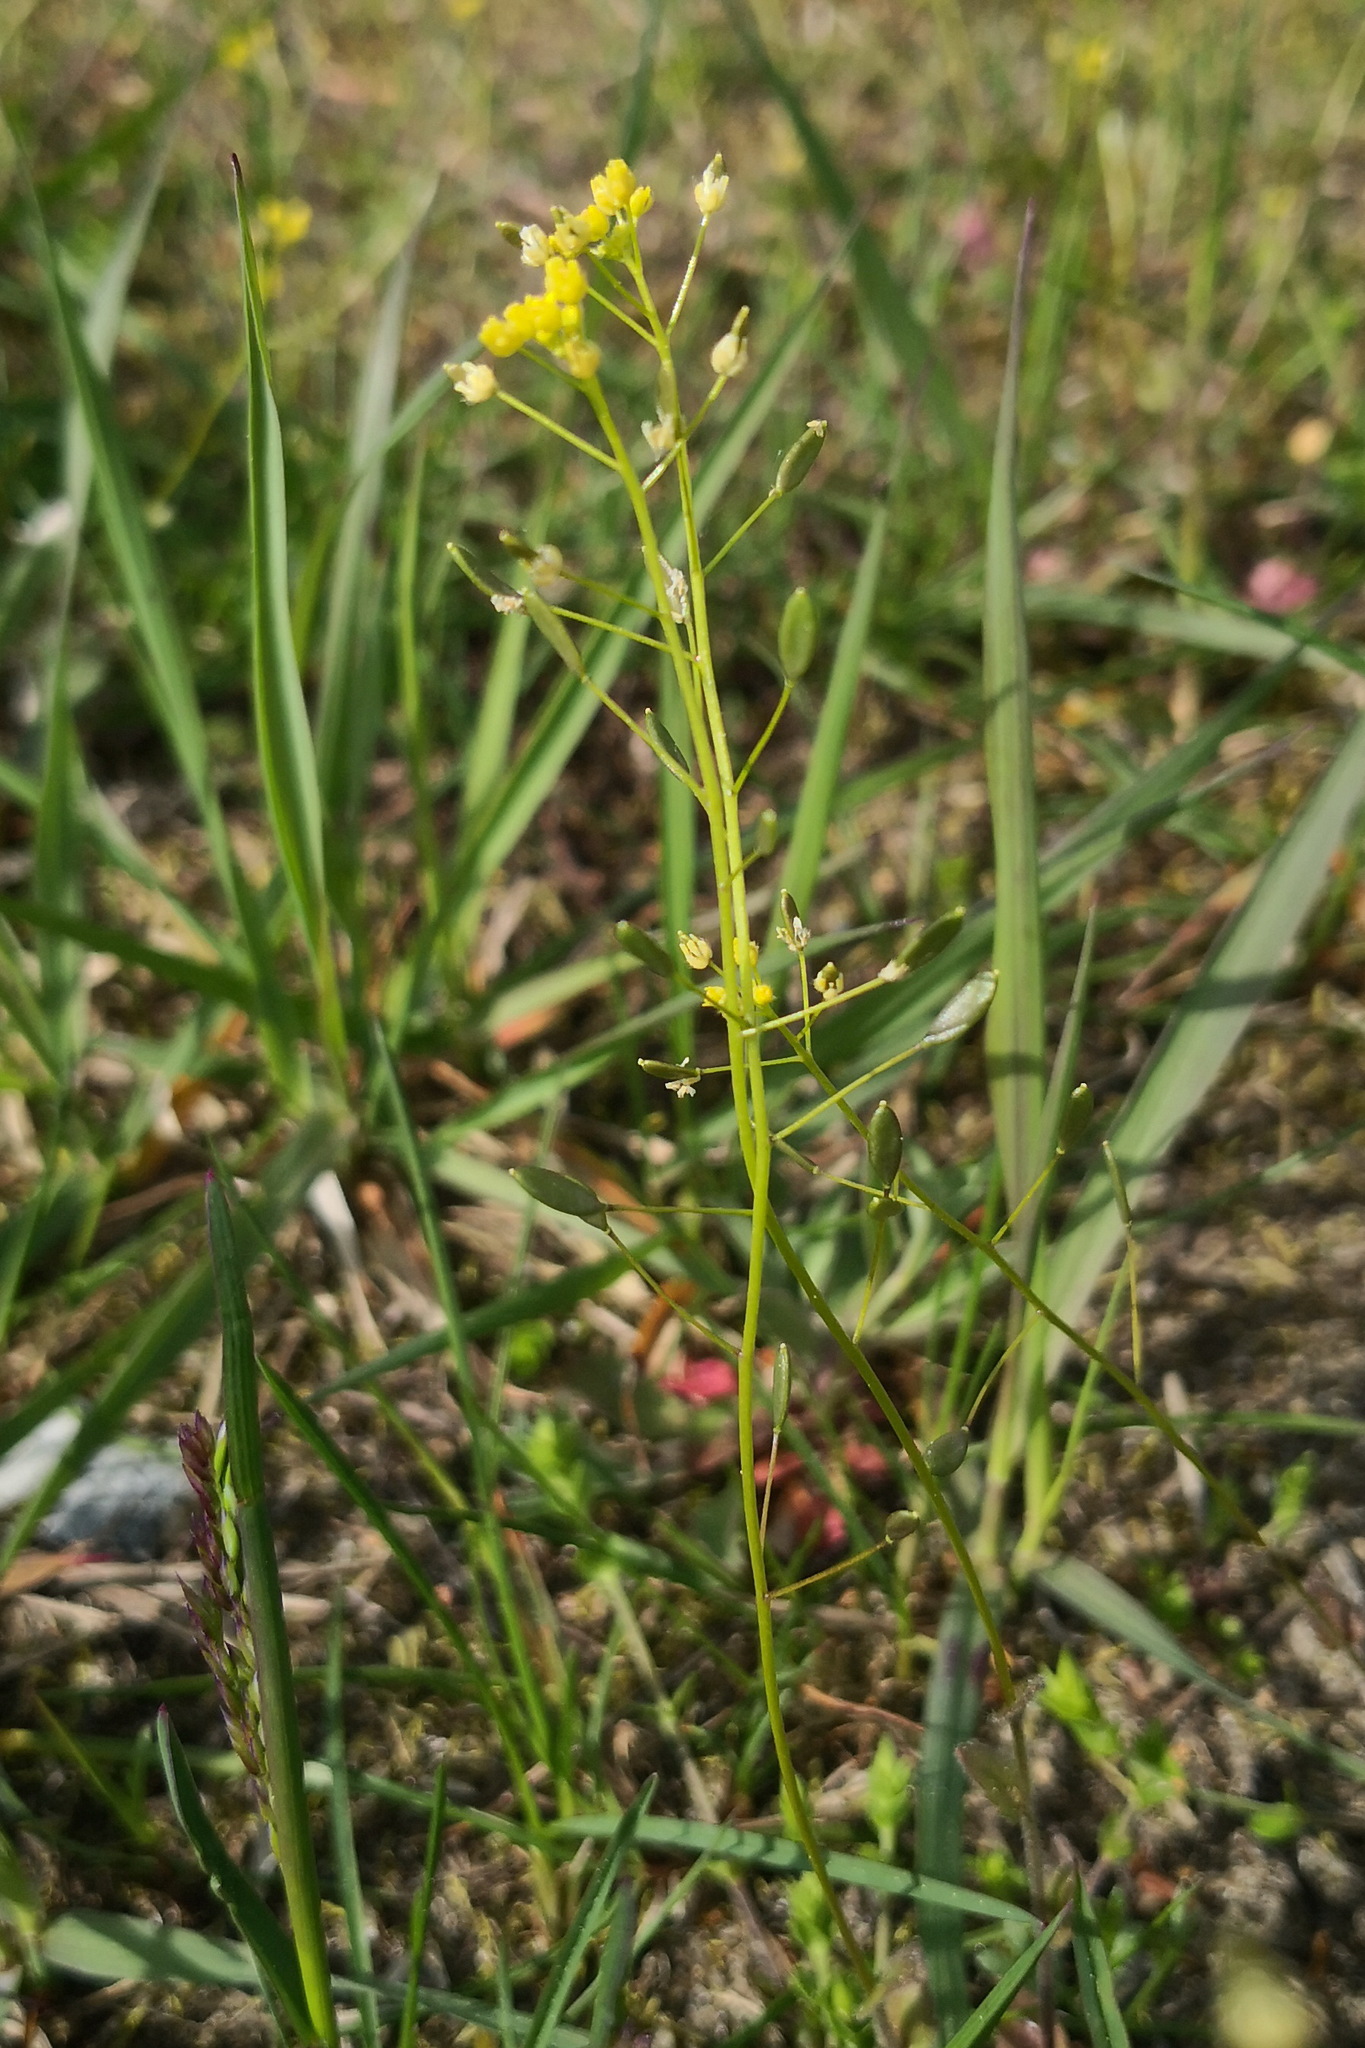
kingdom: Plantae
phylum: Tracheophyta
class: Magnoliopsida
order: Brassicales
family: Brassicaceae
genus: Draba
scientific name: Draba nemorosa
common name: Wood whitlow-grass
